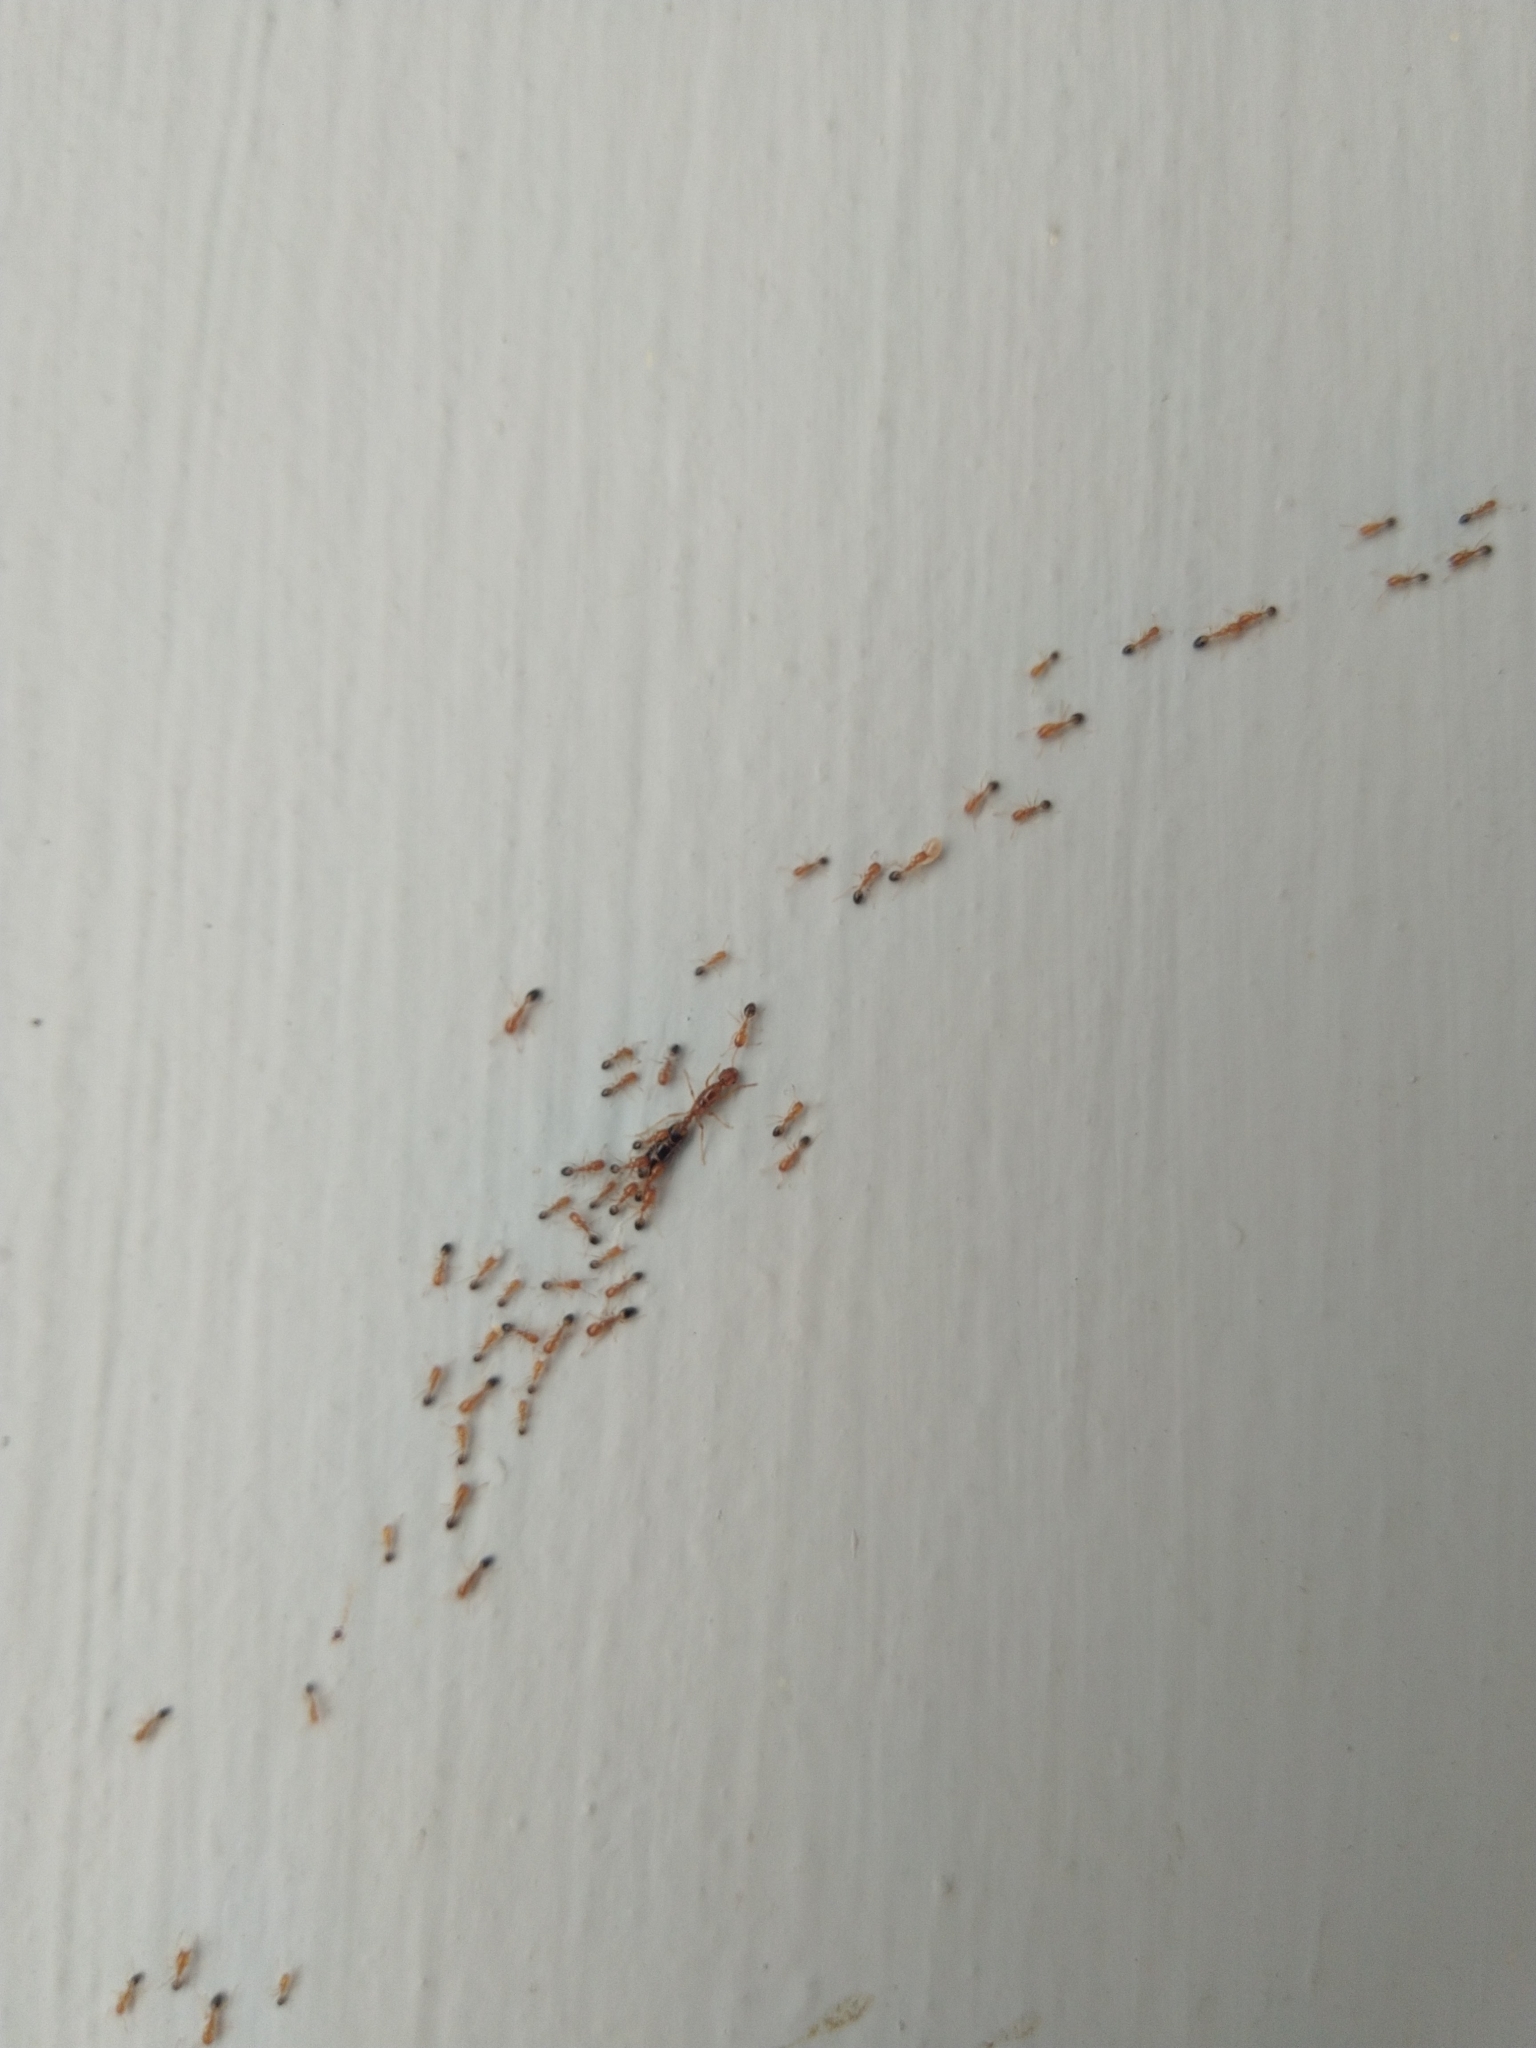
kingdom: Animalia
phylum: Arthropoda
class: Insecta
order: Hymenoptera
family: Formicidae
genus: Monomorium
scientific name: Monomorium destructor
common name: Destructive trailing ant
